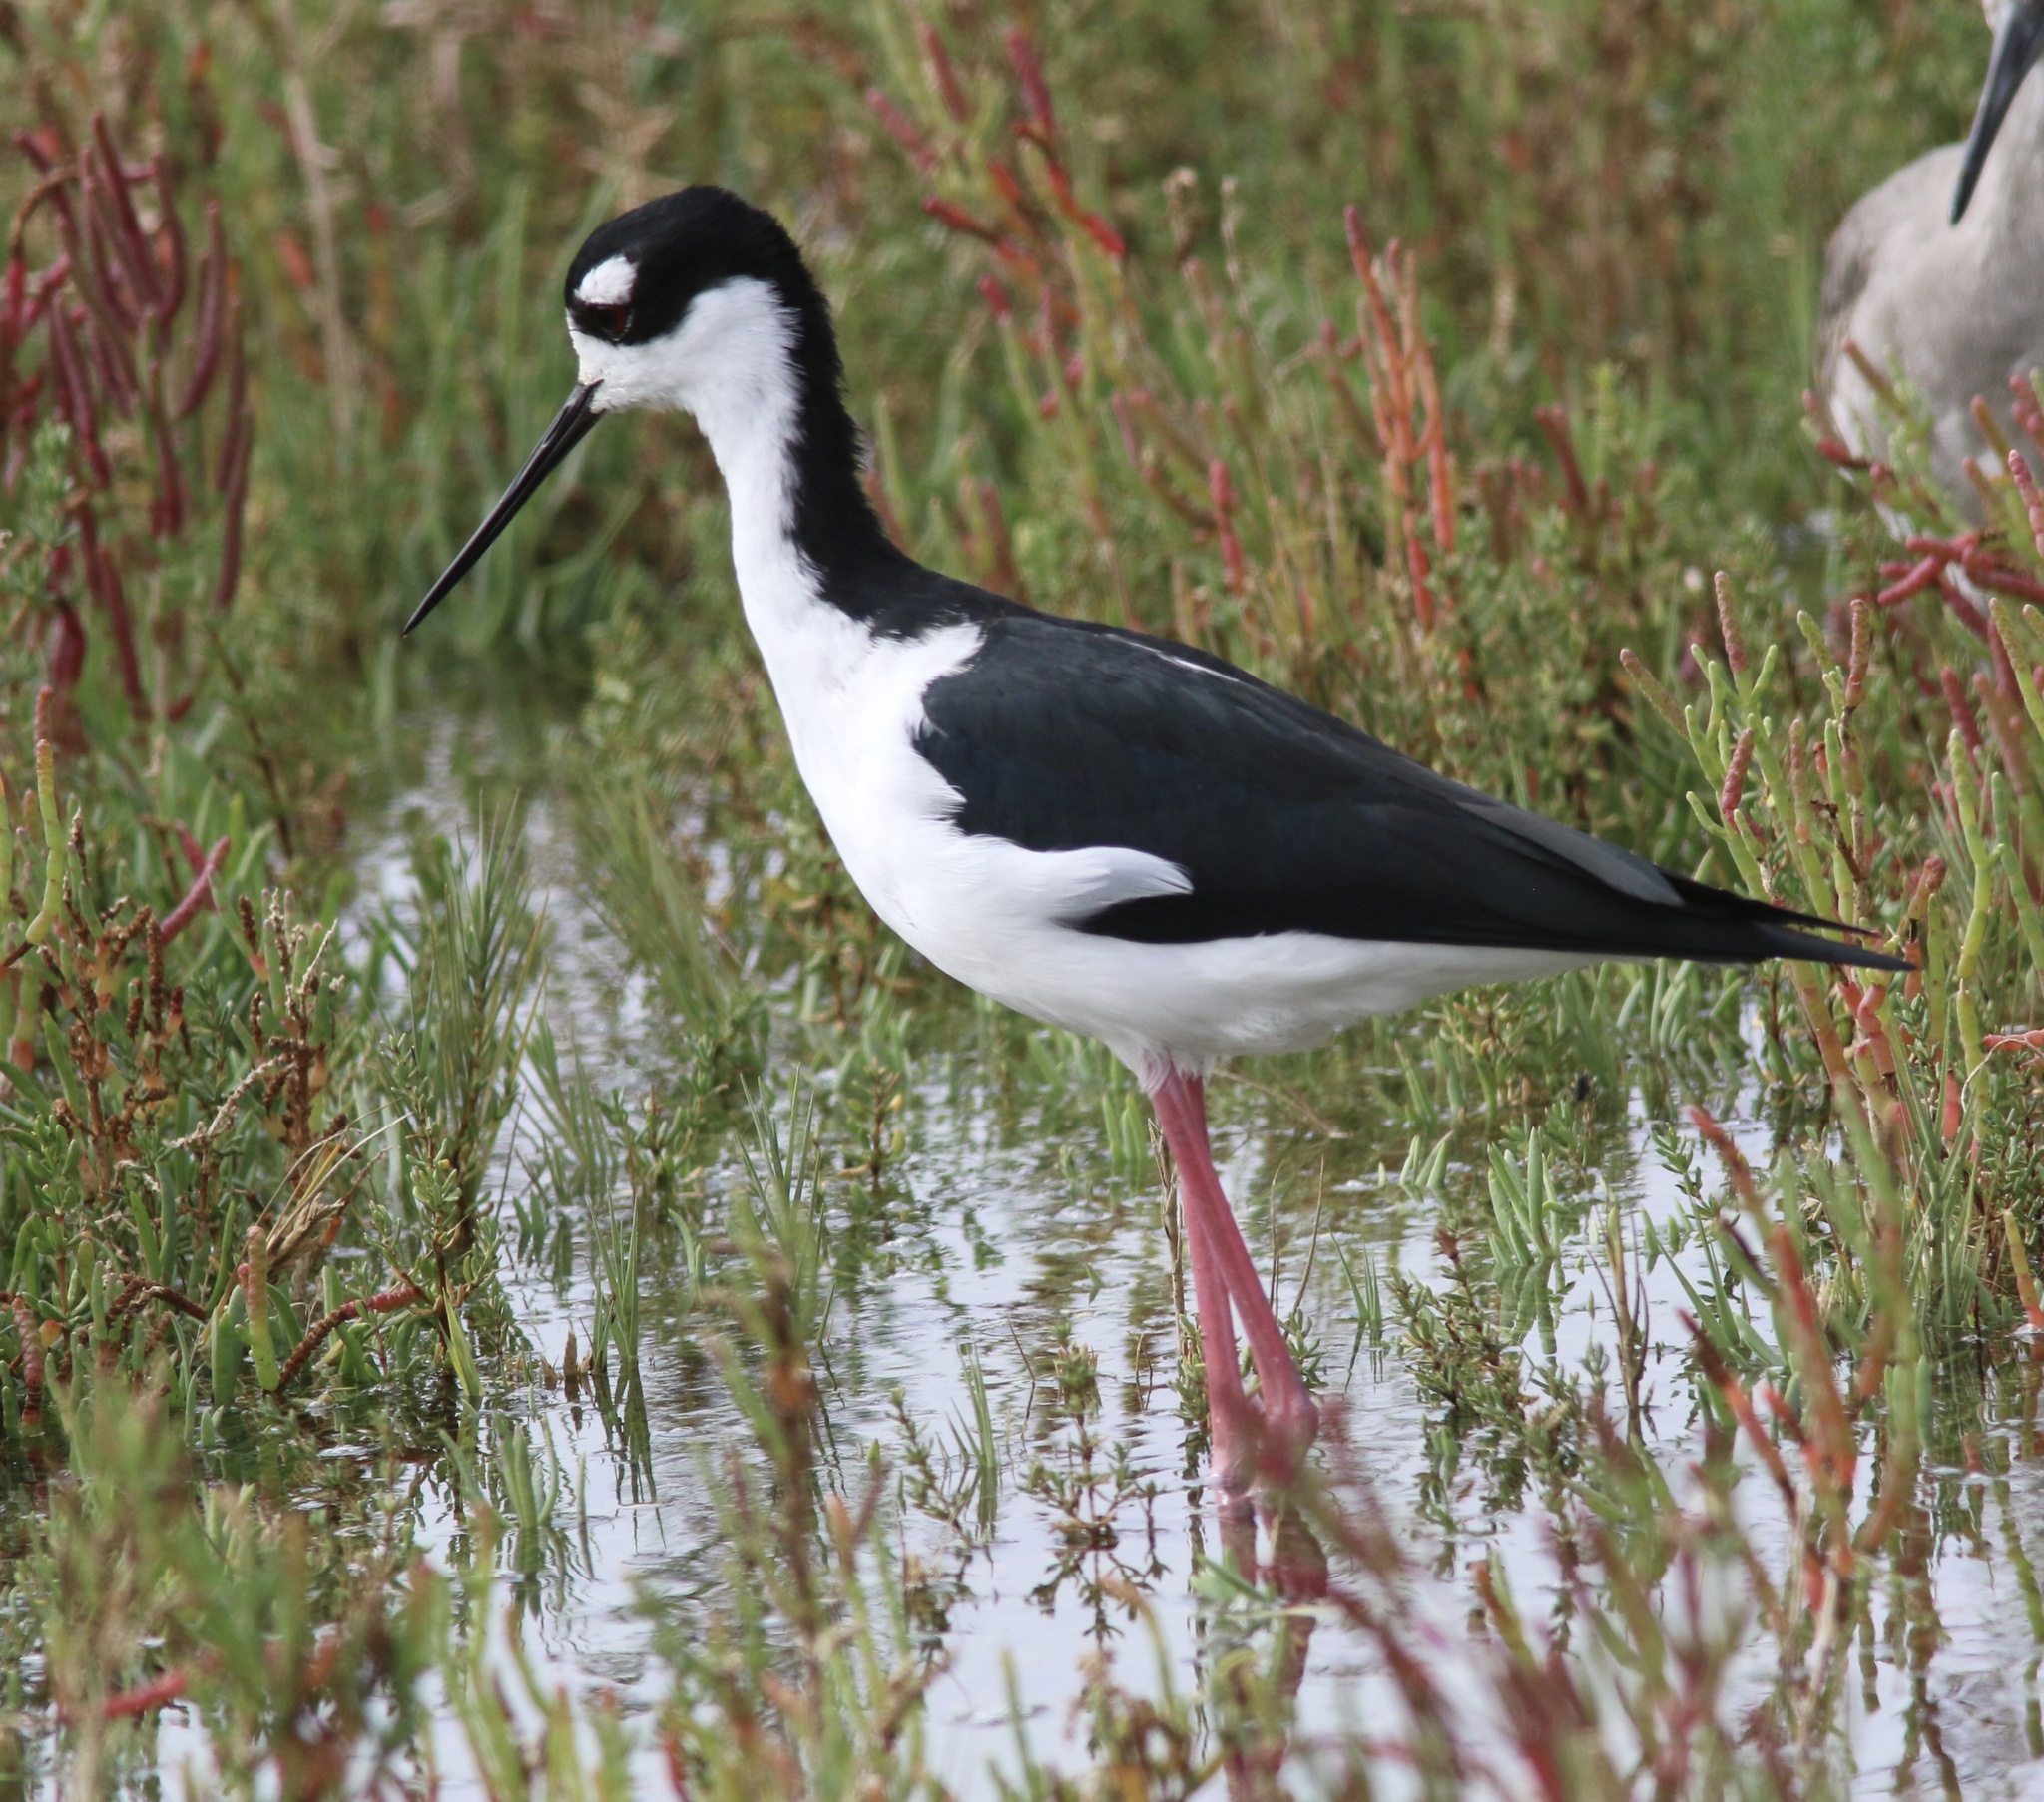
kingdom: Animalia
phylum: Chordata
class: Aves
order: Charadriiformes
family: Recurvirostridae
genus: Himantopus
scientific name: Himantopus mexicanus
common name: Black-necked stilt
